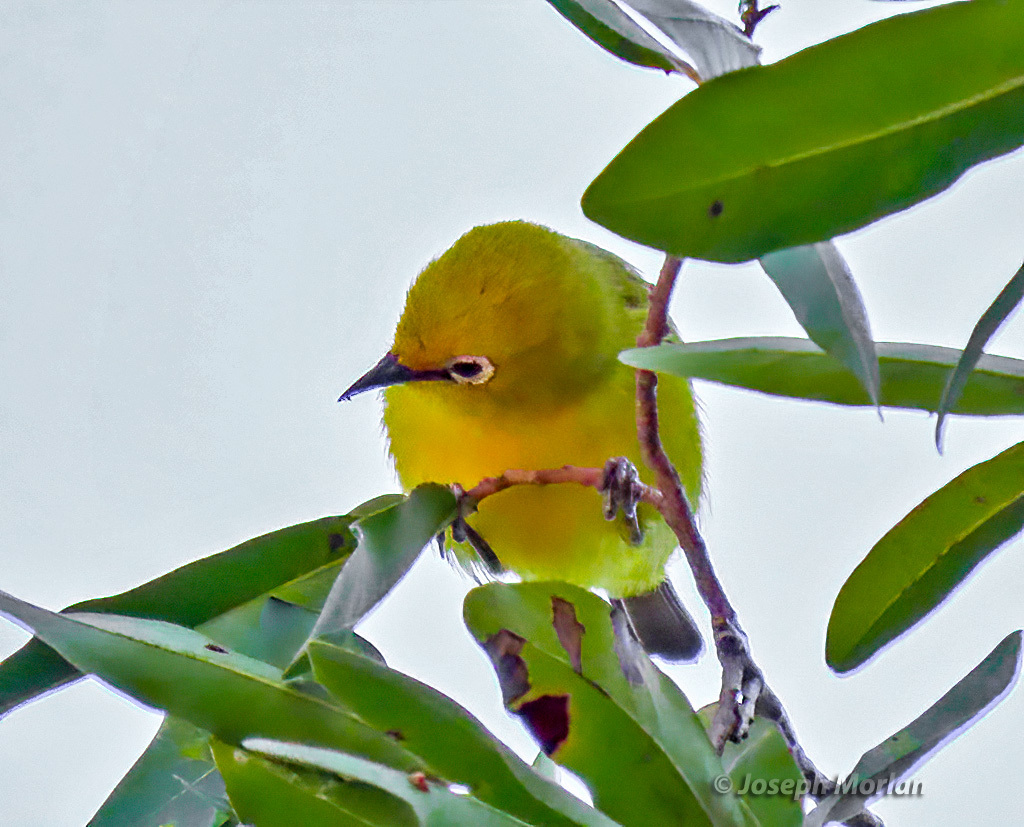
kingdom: Animalia
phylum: Chordata
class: Aves
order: Passeriformes
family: Zosteropidae
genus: Zosterops
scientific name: Zosterops anderssoni
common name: Southern yellow white-eye
